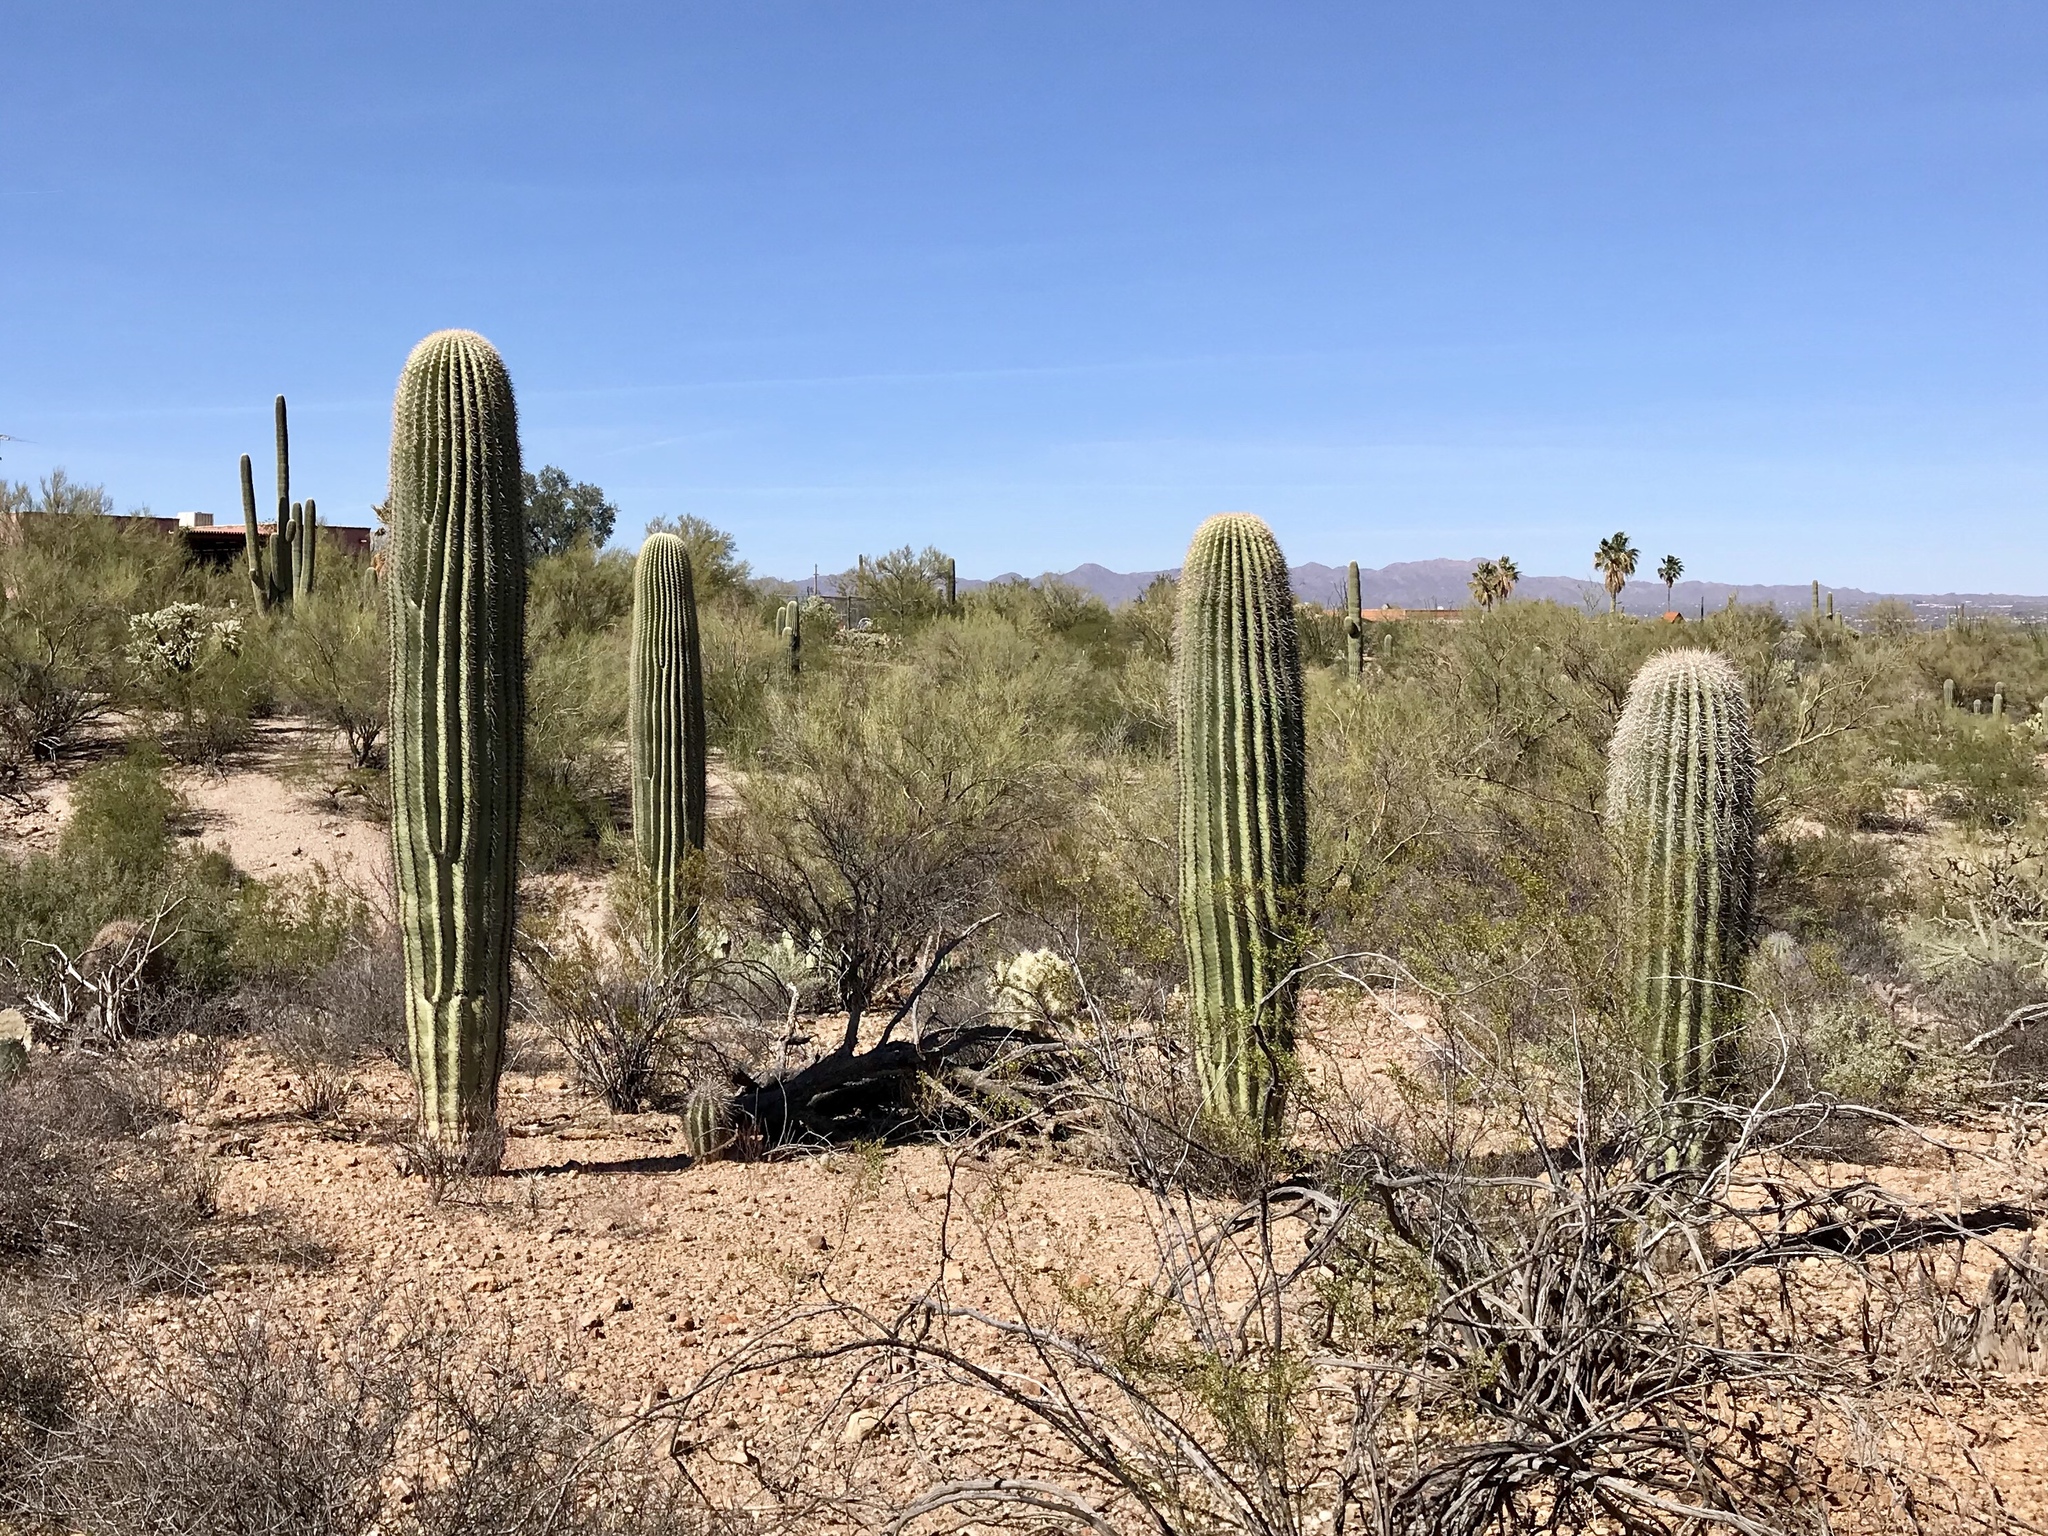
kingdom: Plantae
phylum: Tracheophyta
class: Magnoliopsida
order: Caryophyllales
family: Cactaceae
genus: Carnegiea
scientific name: Carnegiea gigantea
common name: Saguaro
